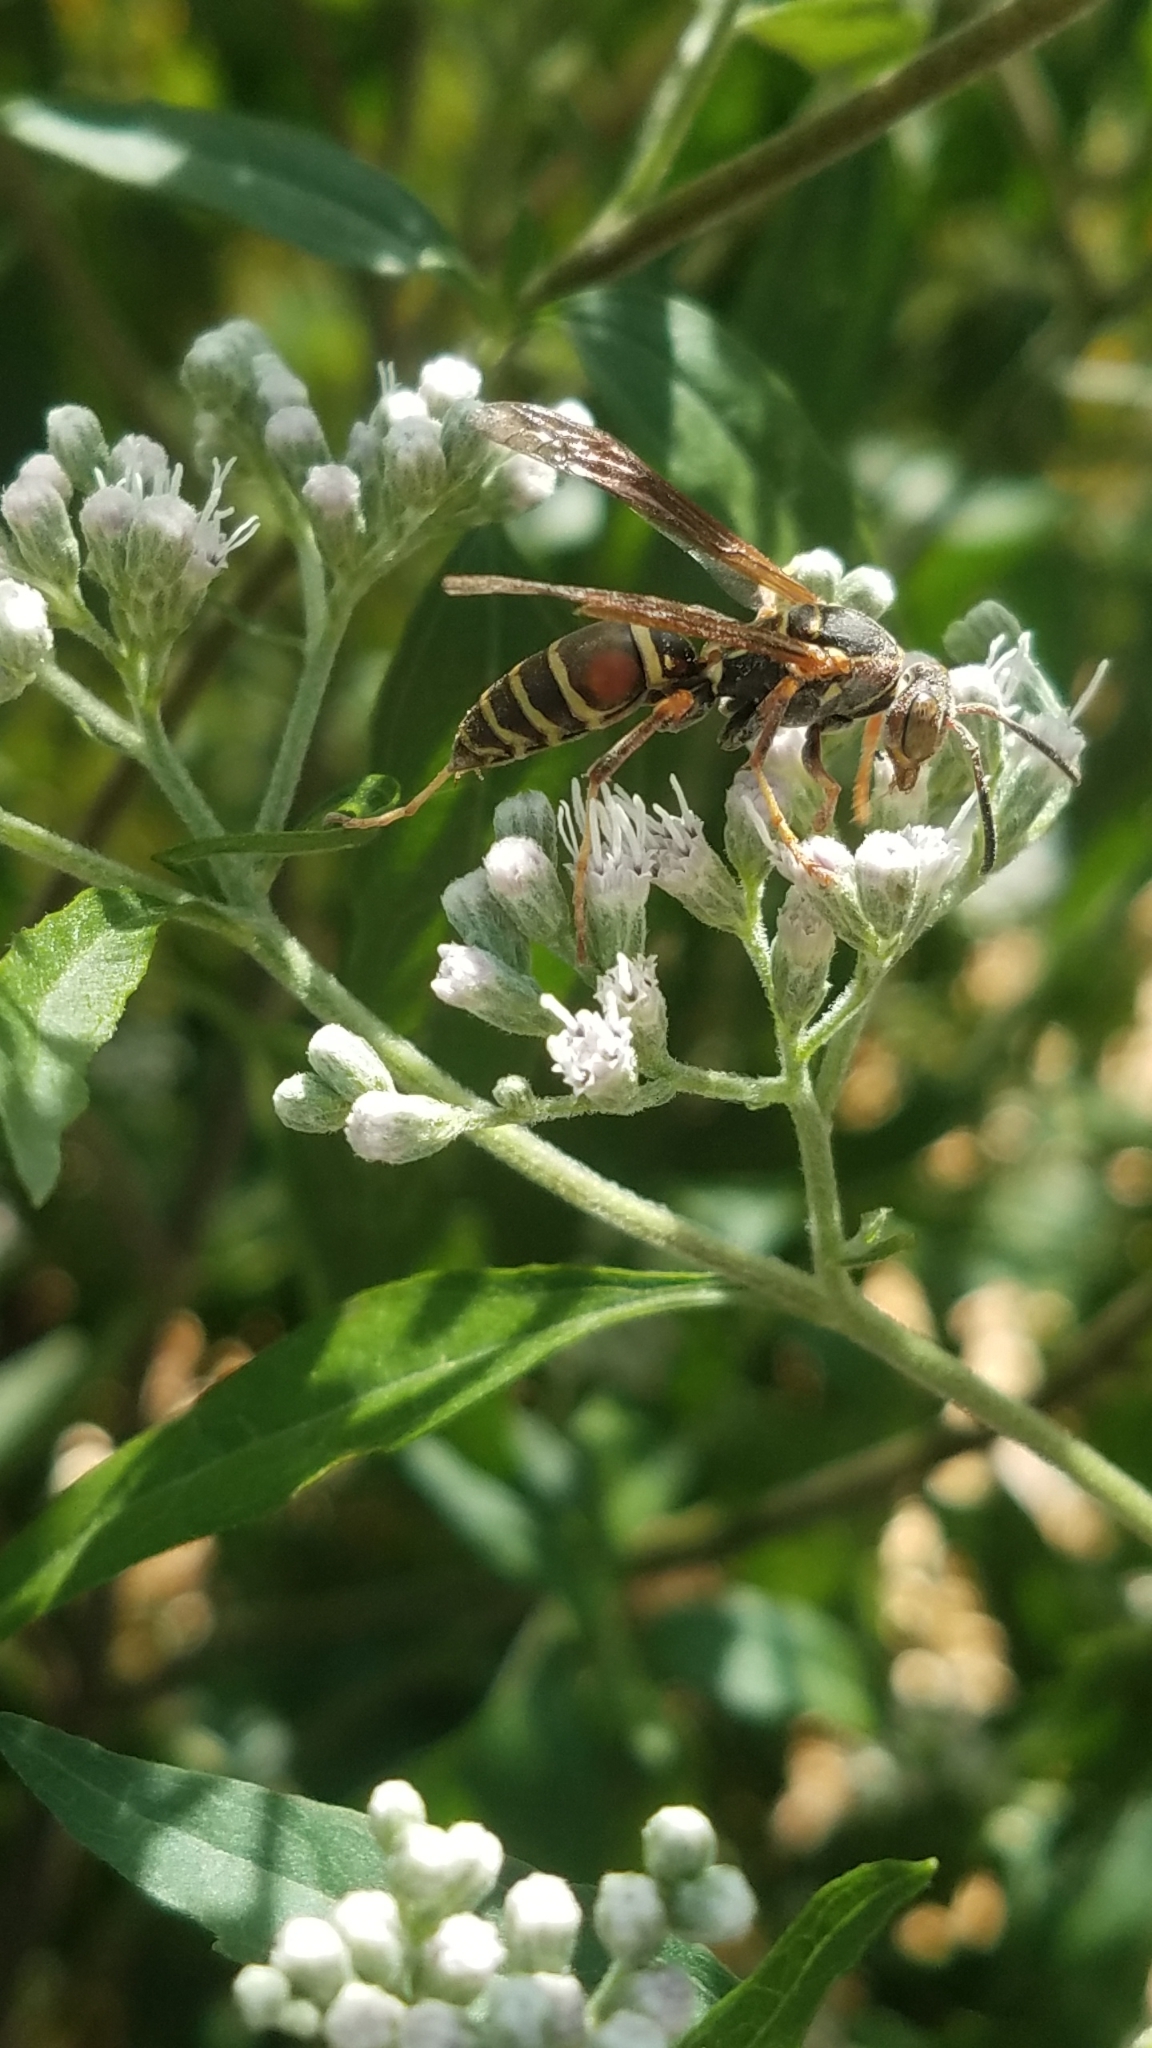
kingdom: Animalia
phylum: Arthropoda
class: Insecta
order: Hymenoptera
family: Eumenidae
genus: Polistes
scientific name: Polistes fuscatus
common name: Dark paper wasp
